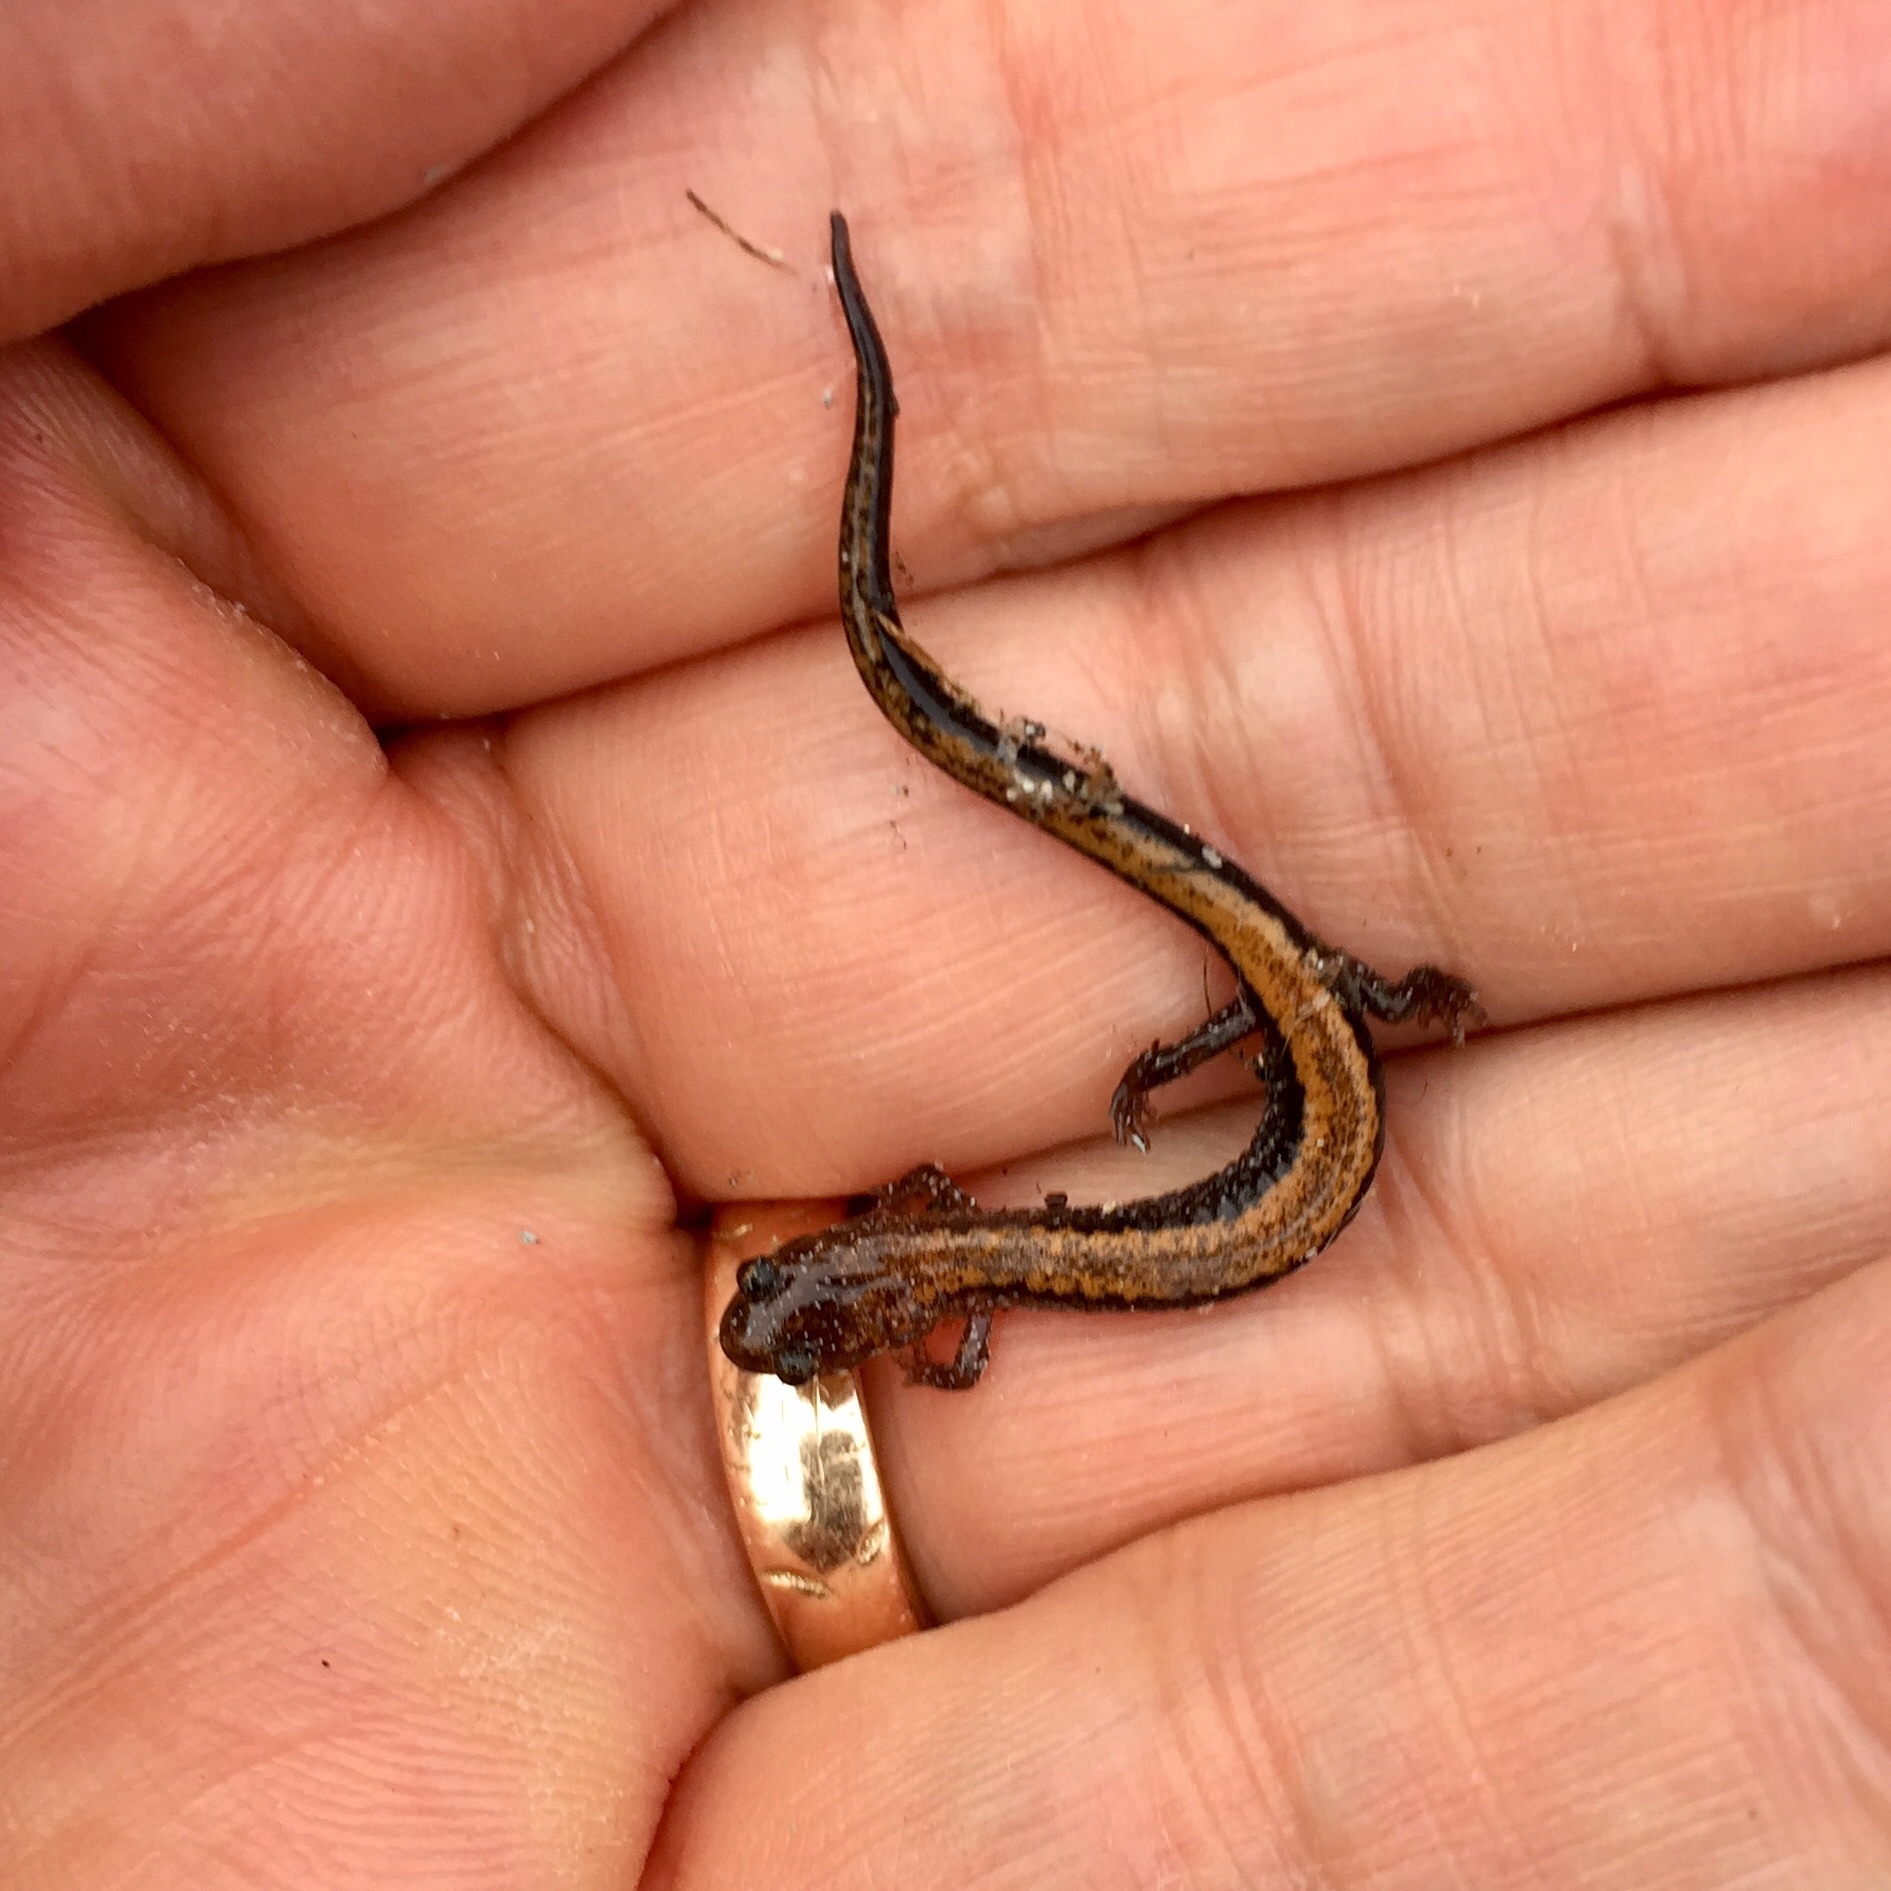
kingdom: Animalia
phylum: Chordata
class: Amphibia
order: Caudata
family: Plethodontidae
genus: Plethodon
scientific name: Plethodon cinereus
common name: Redback salamander
